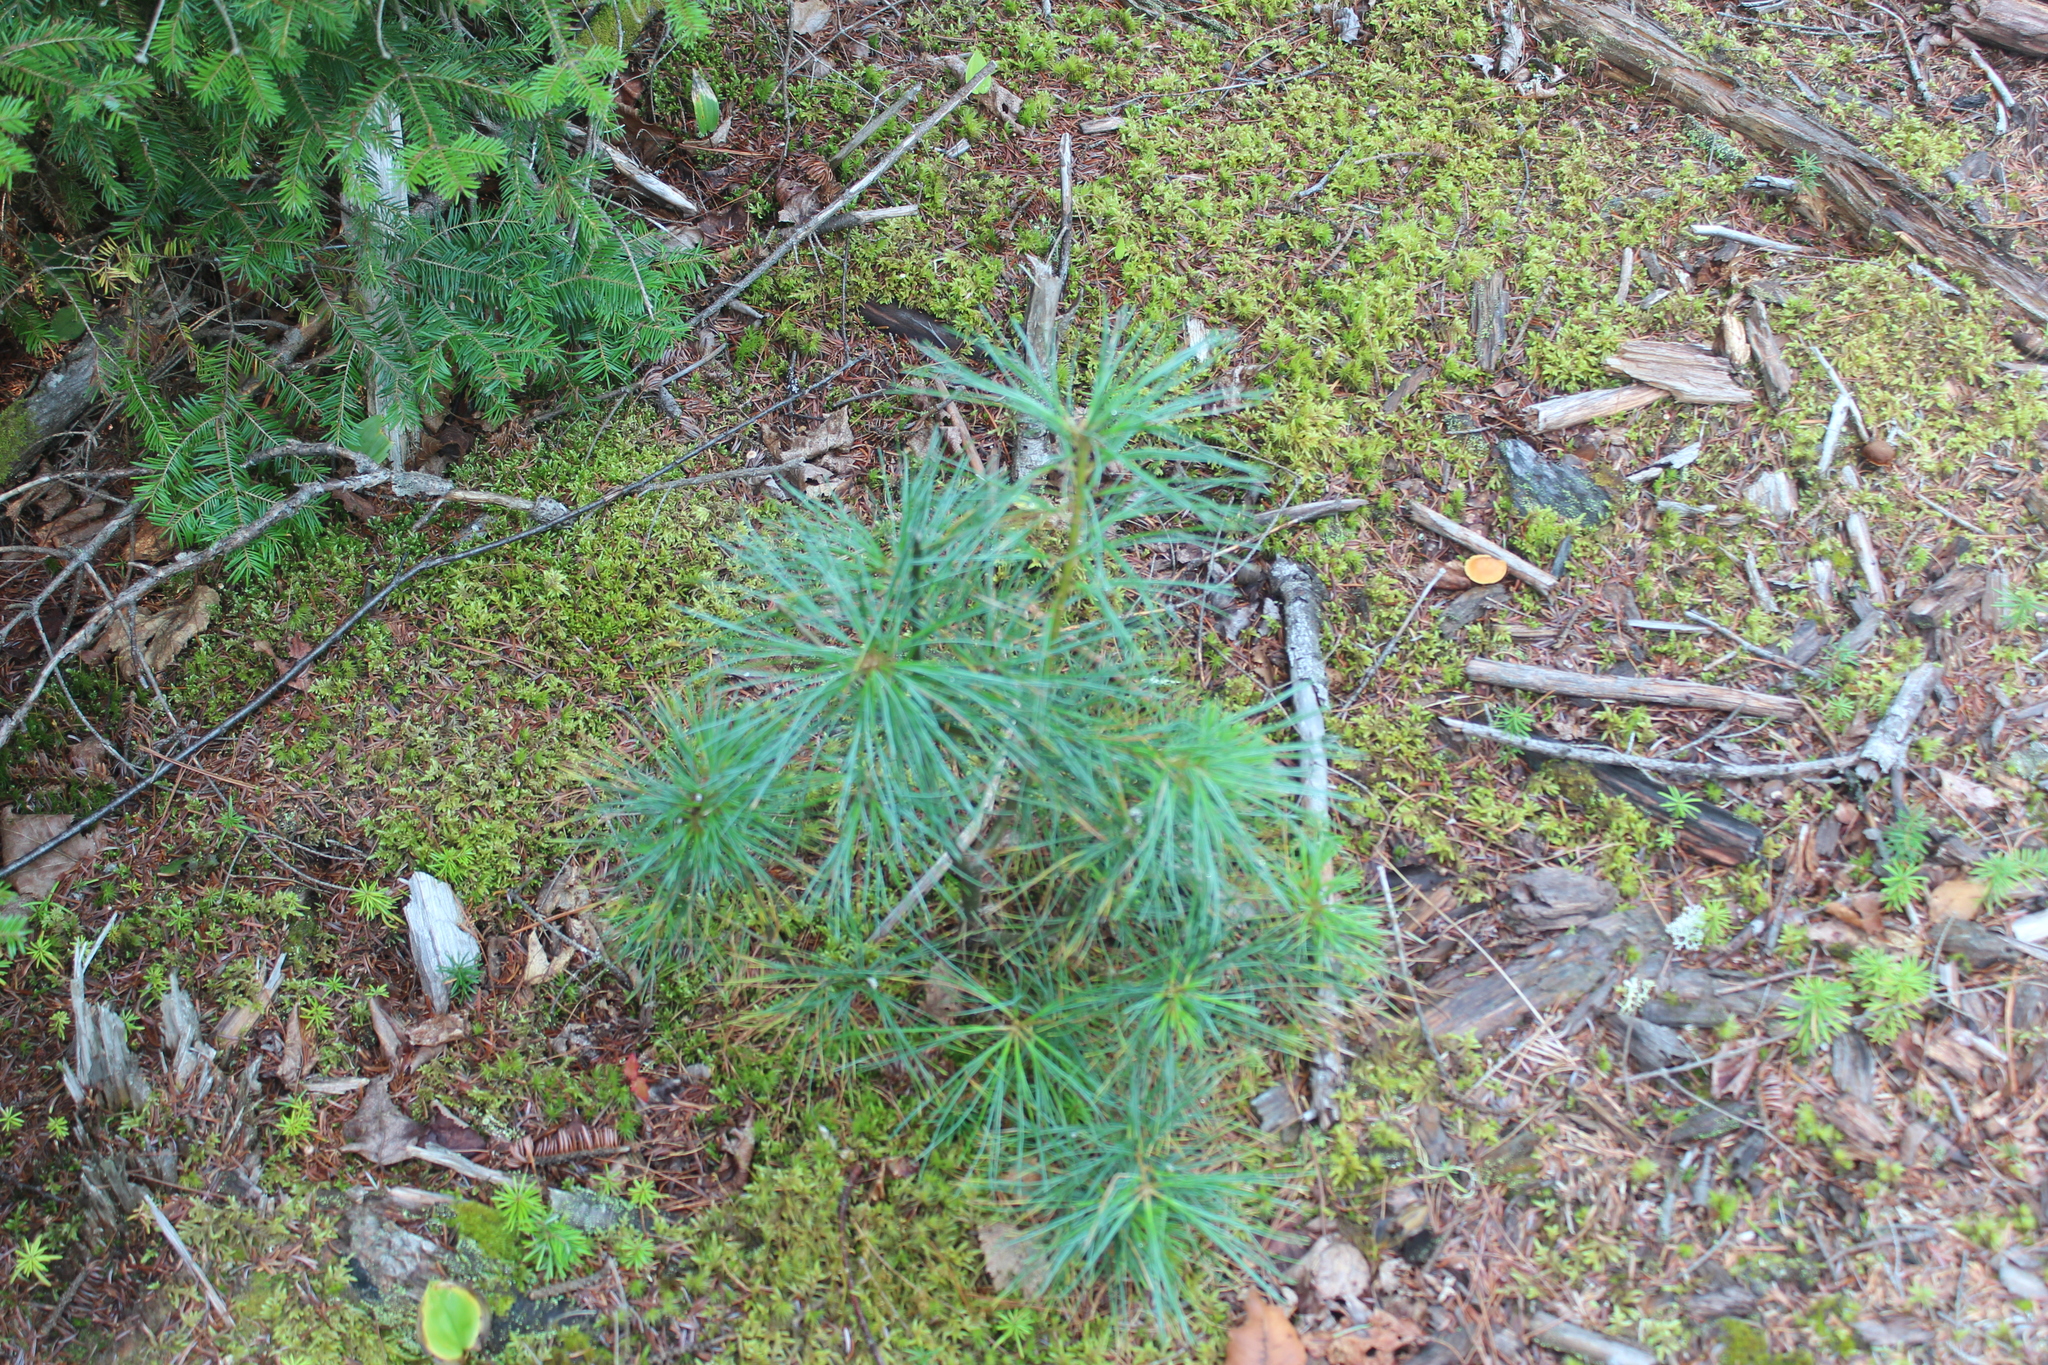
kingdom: Plantae
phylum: Tracheophyta
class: Pinopsida
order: Pinales
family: Pinaceae
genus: Pinus
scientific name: Pinus strobus
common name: Weymouth pine
